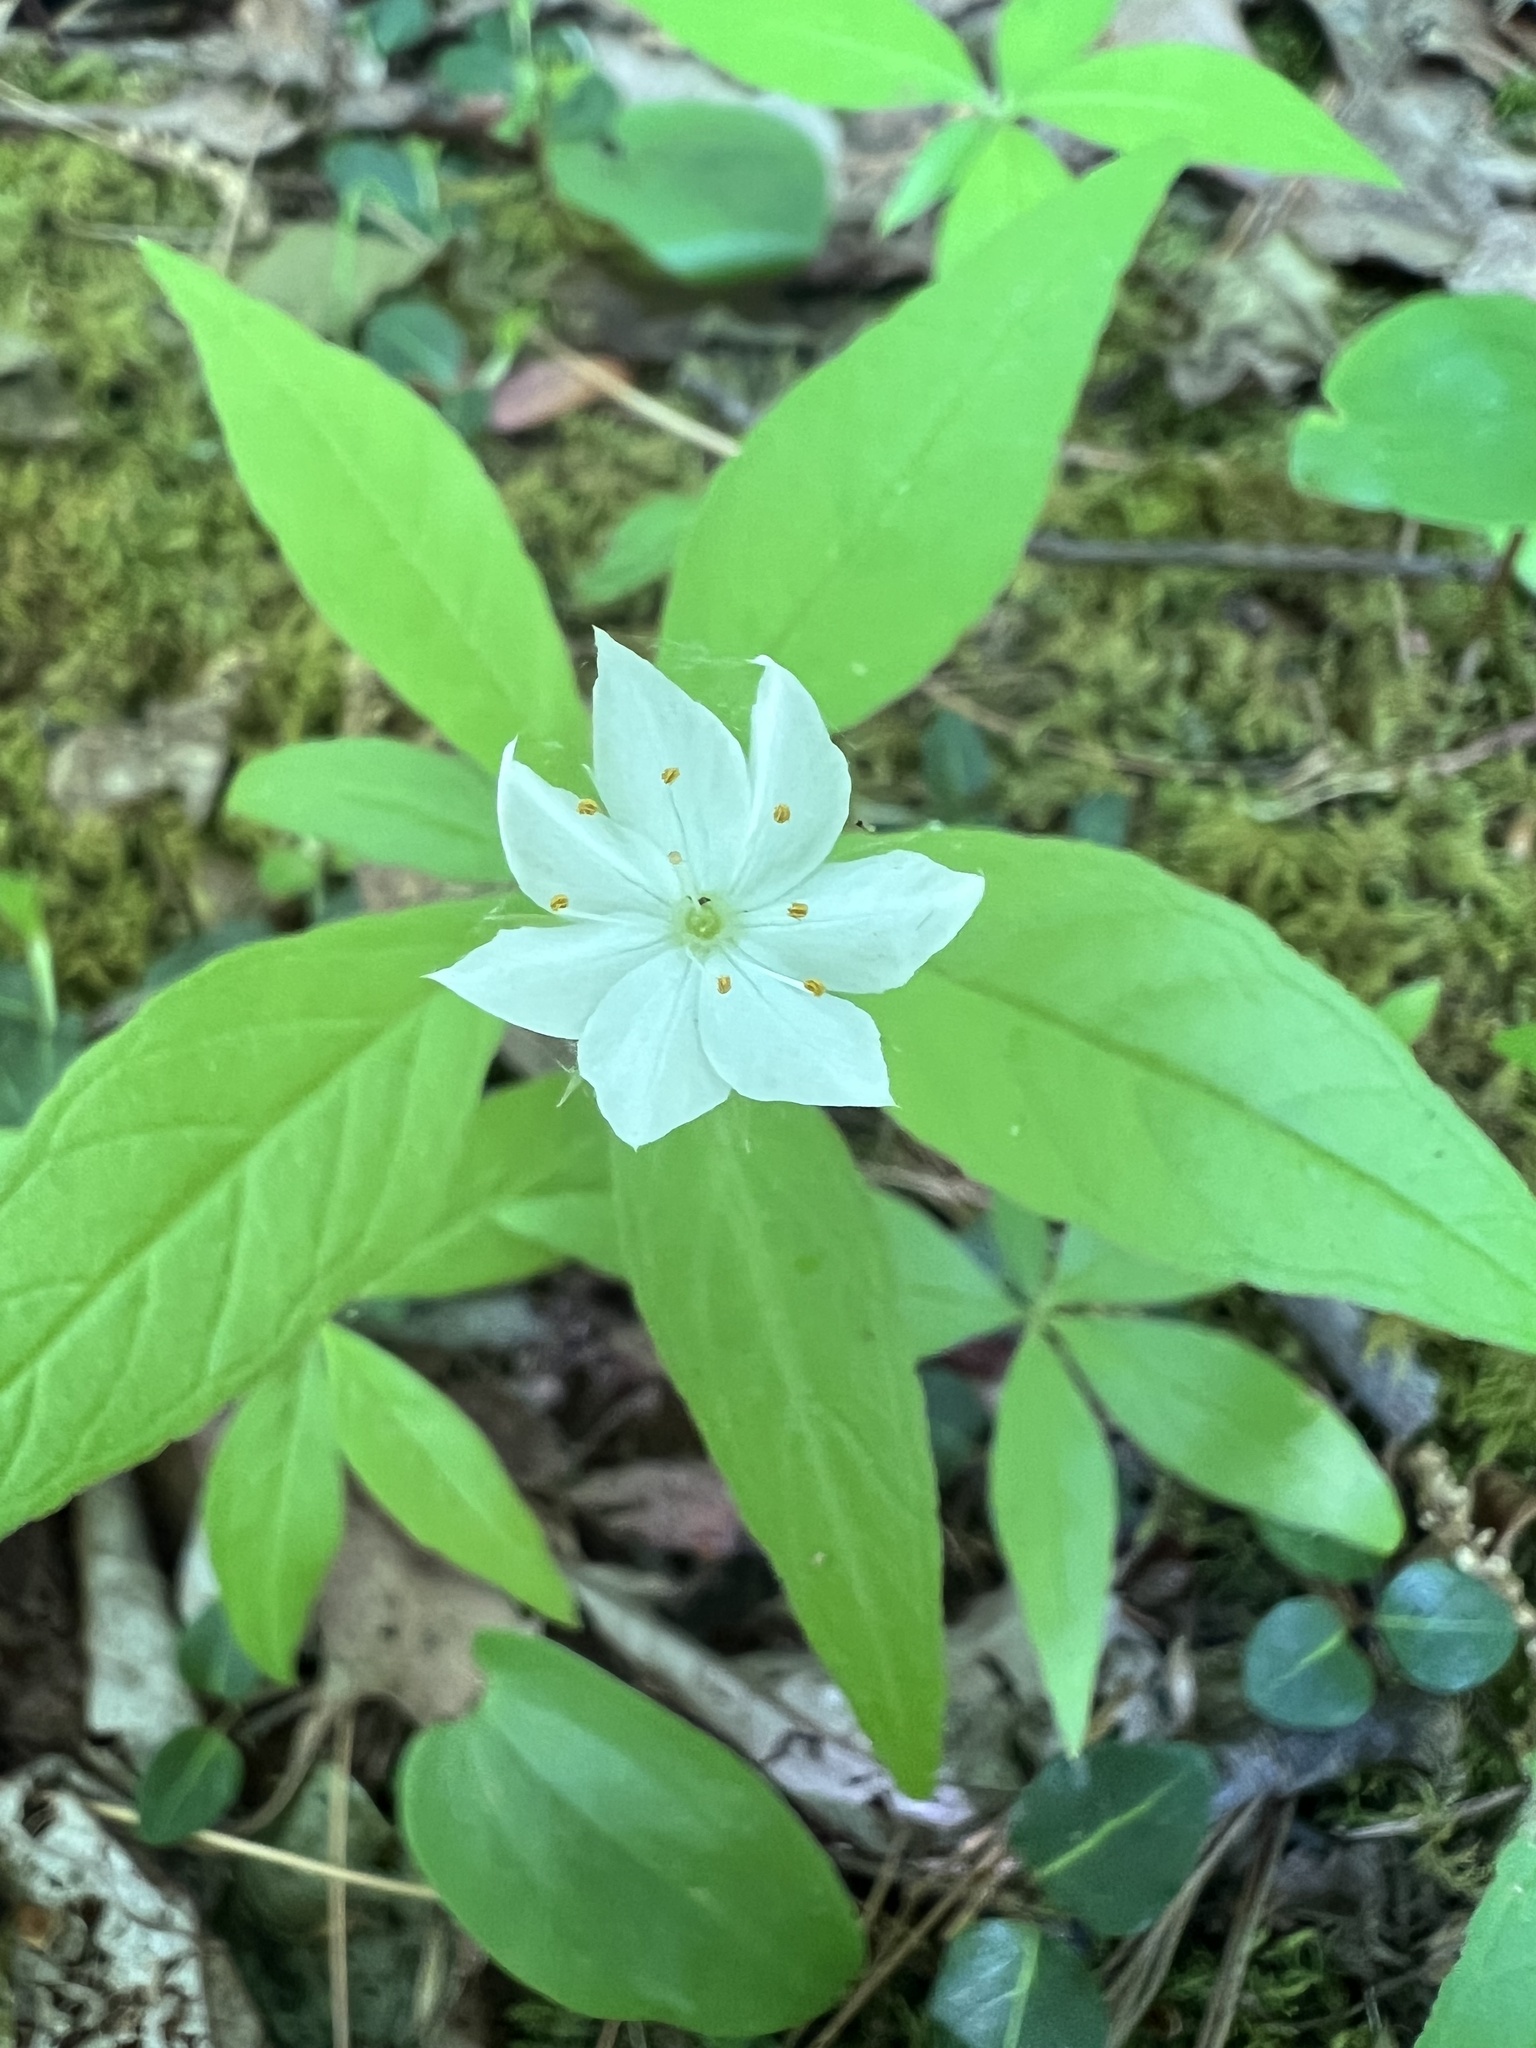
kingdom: Plantae
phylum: Tracheophyta
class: Magnoliopsida
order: Ericales
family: Primulaceae
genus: Lysimachia
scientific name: Lysimachia borealis
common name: American starflower
